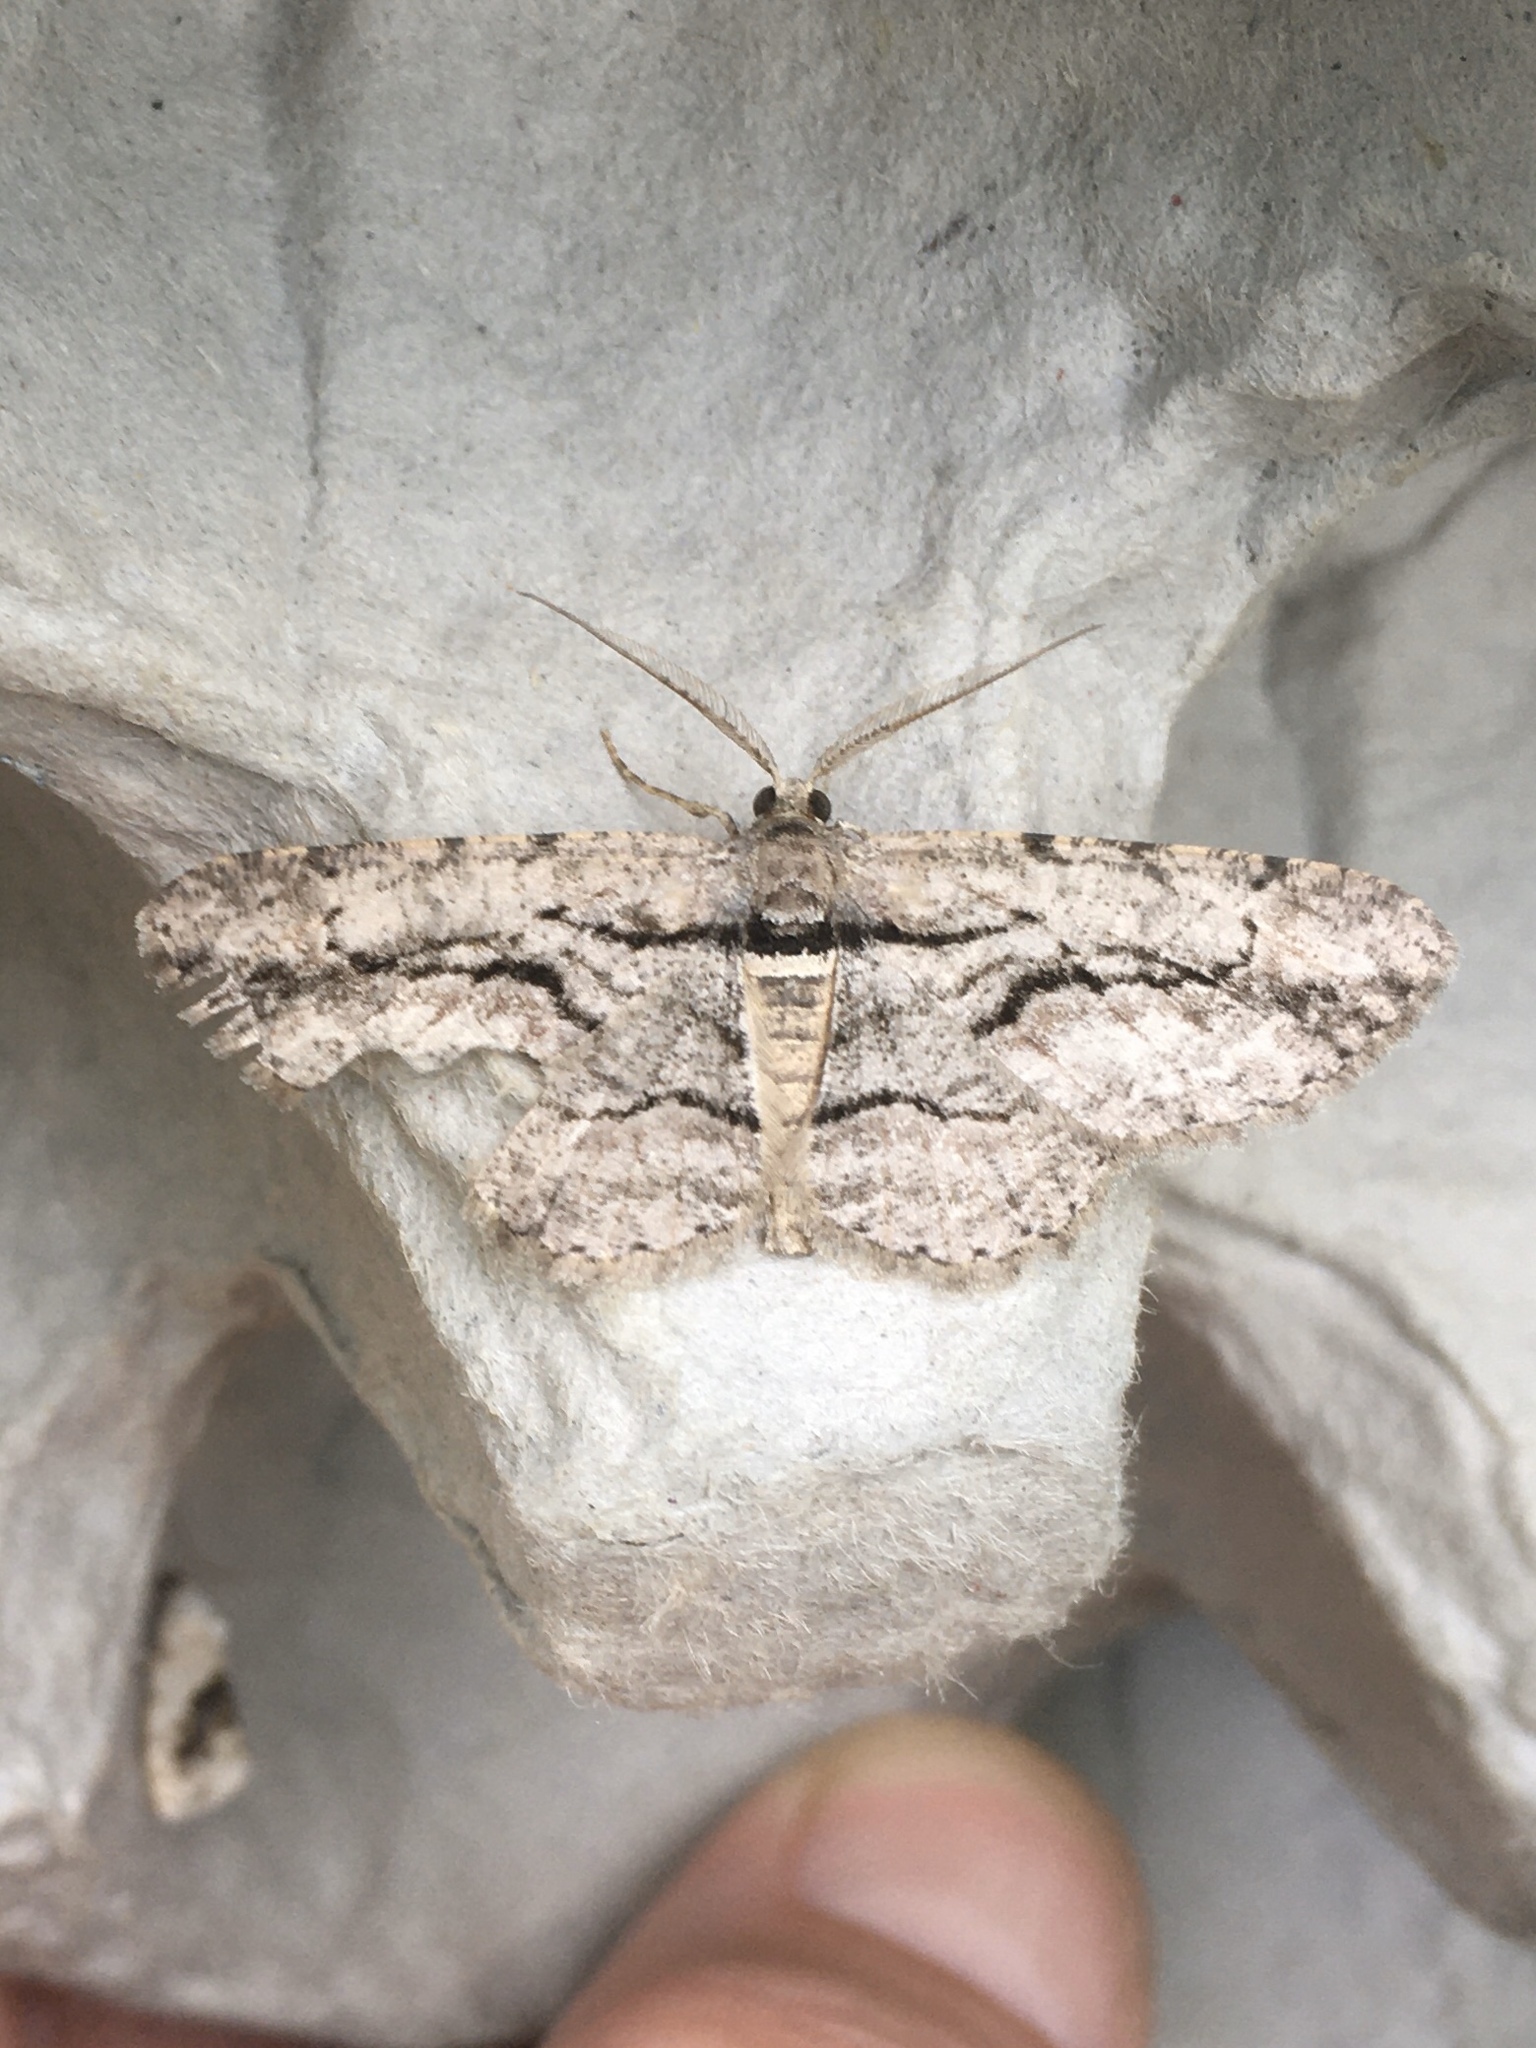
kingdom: Animalia
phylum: Arthropoda
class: Insecta
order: Lepidoptera
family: Geometridae
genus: Anavitrinella
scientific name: Anavitrinella pampinaria
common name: Common gray
